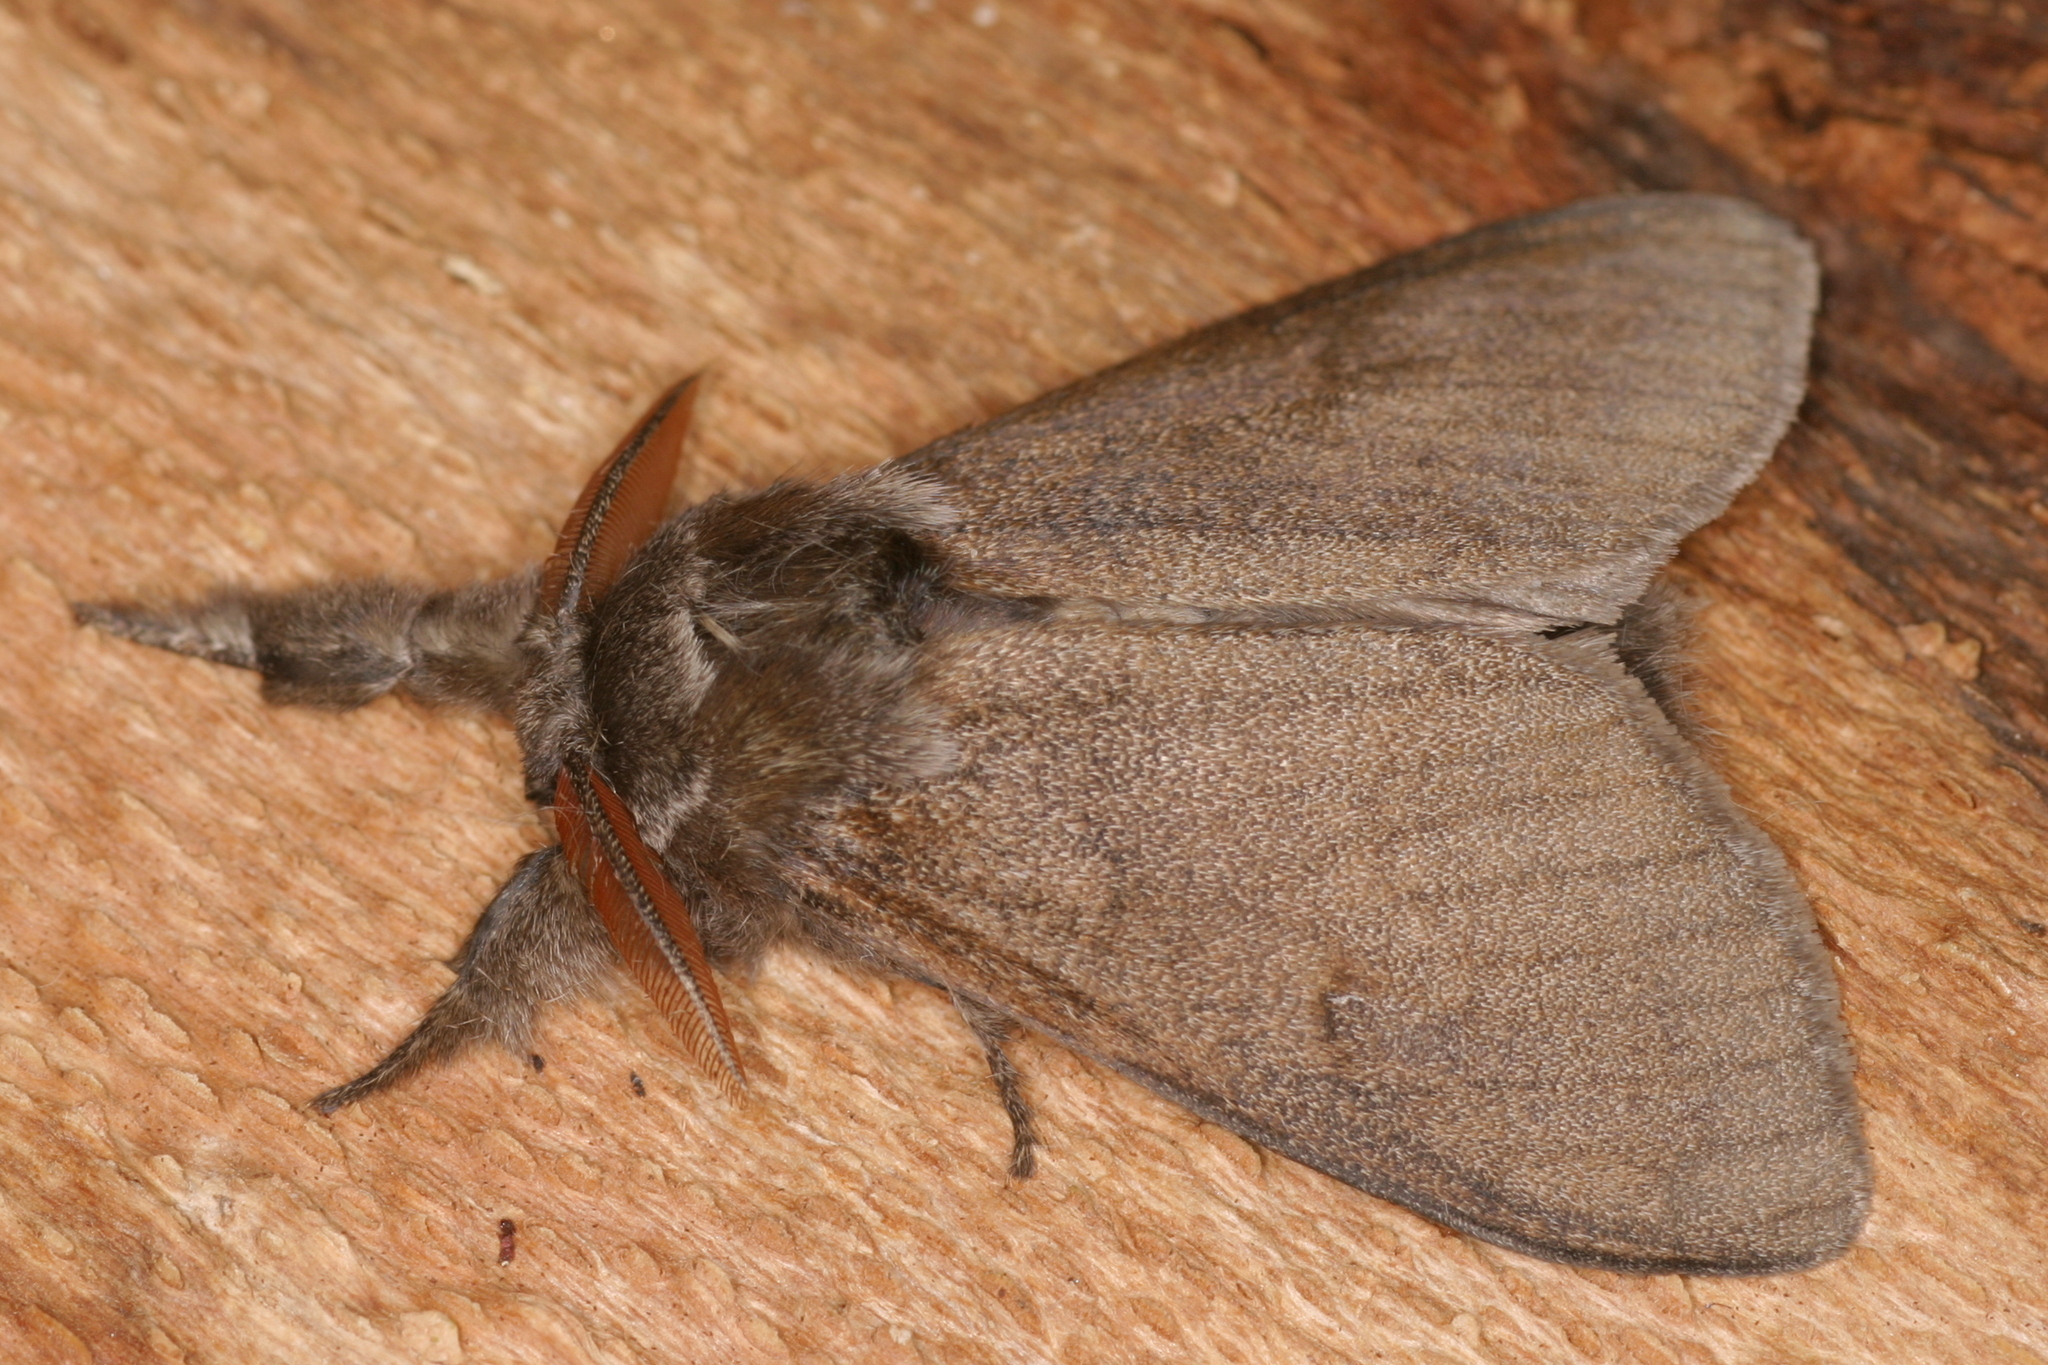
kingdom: Animalia
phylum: Arthropoda
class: Insecta
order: Lepidoptera
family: Erebidae
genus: Calliteara
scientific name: Calliteara pudibunda
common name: Pale tussock
